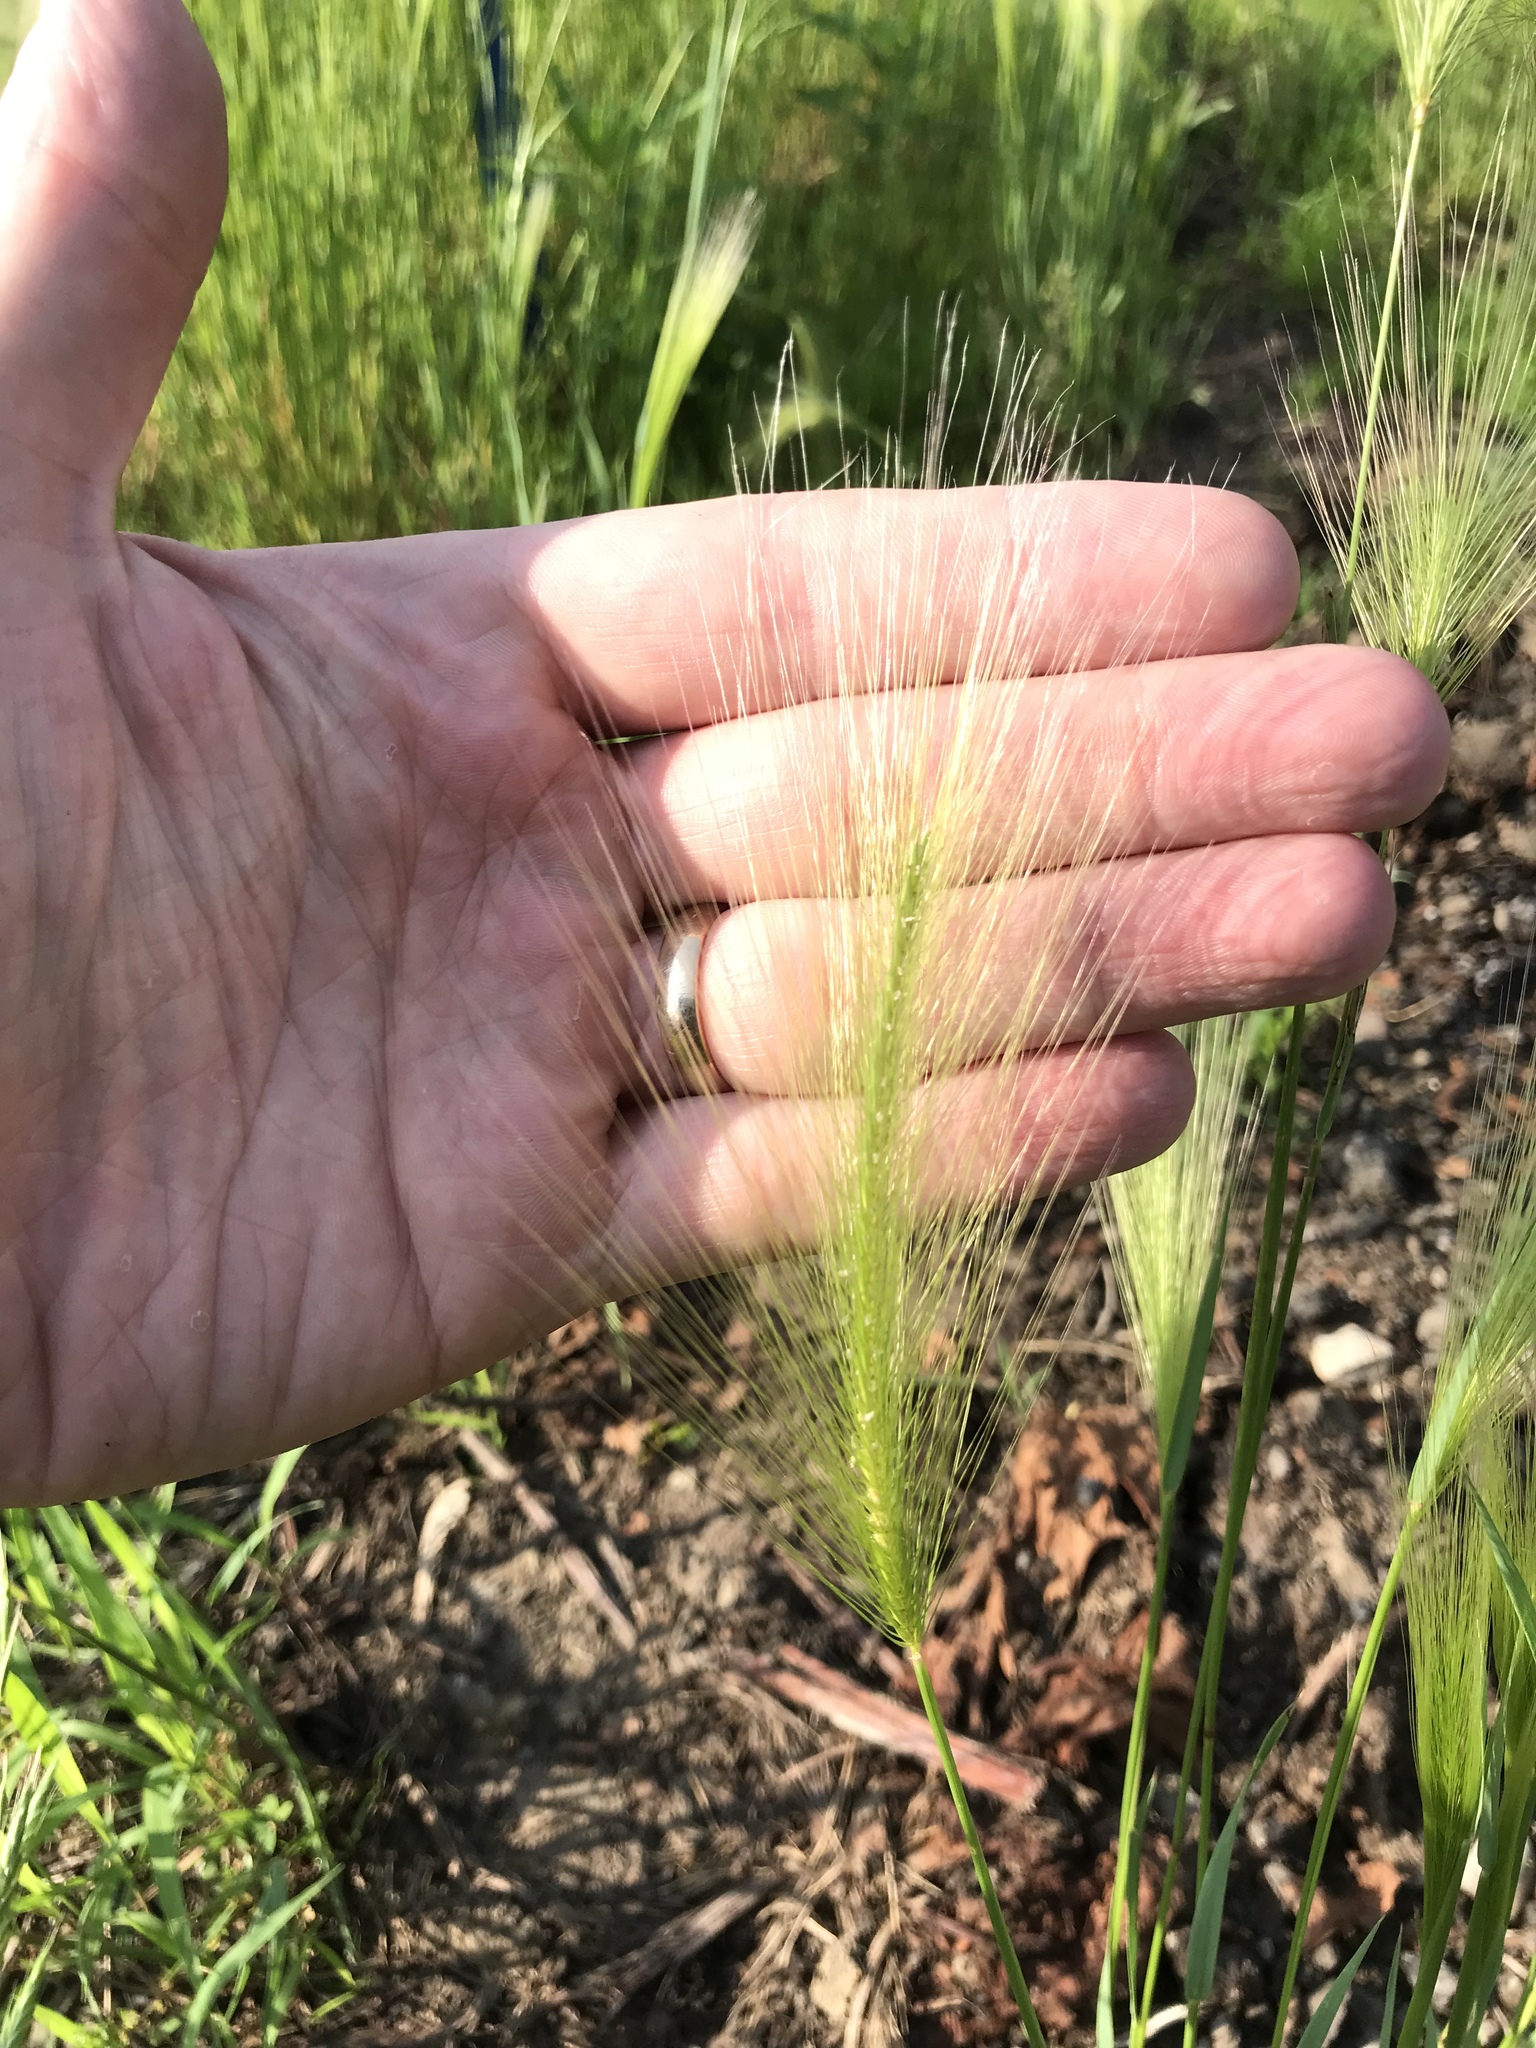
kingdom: Plantae
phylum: Tracheophyta
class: Liliopsida
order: Poales
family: Poaceae
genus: Hordeum
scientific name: Hordeum jubatum
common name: Foxtail barley
